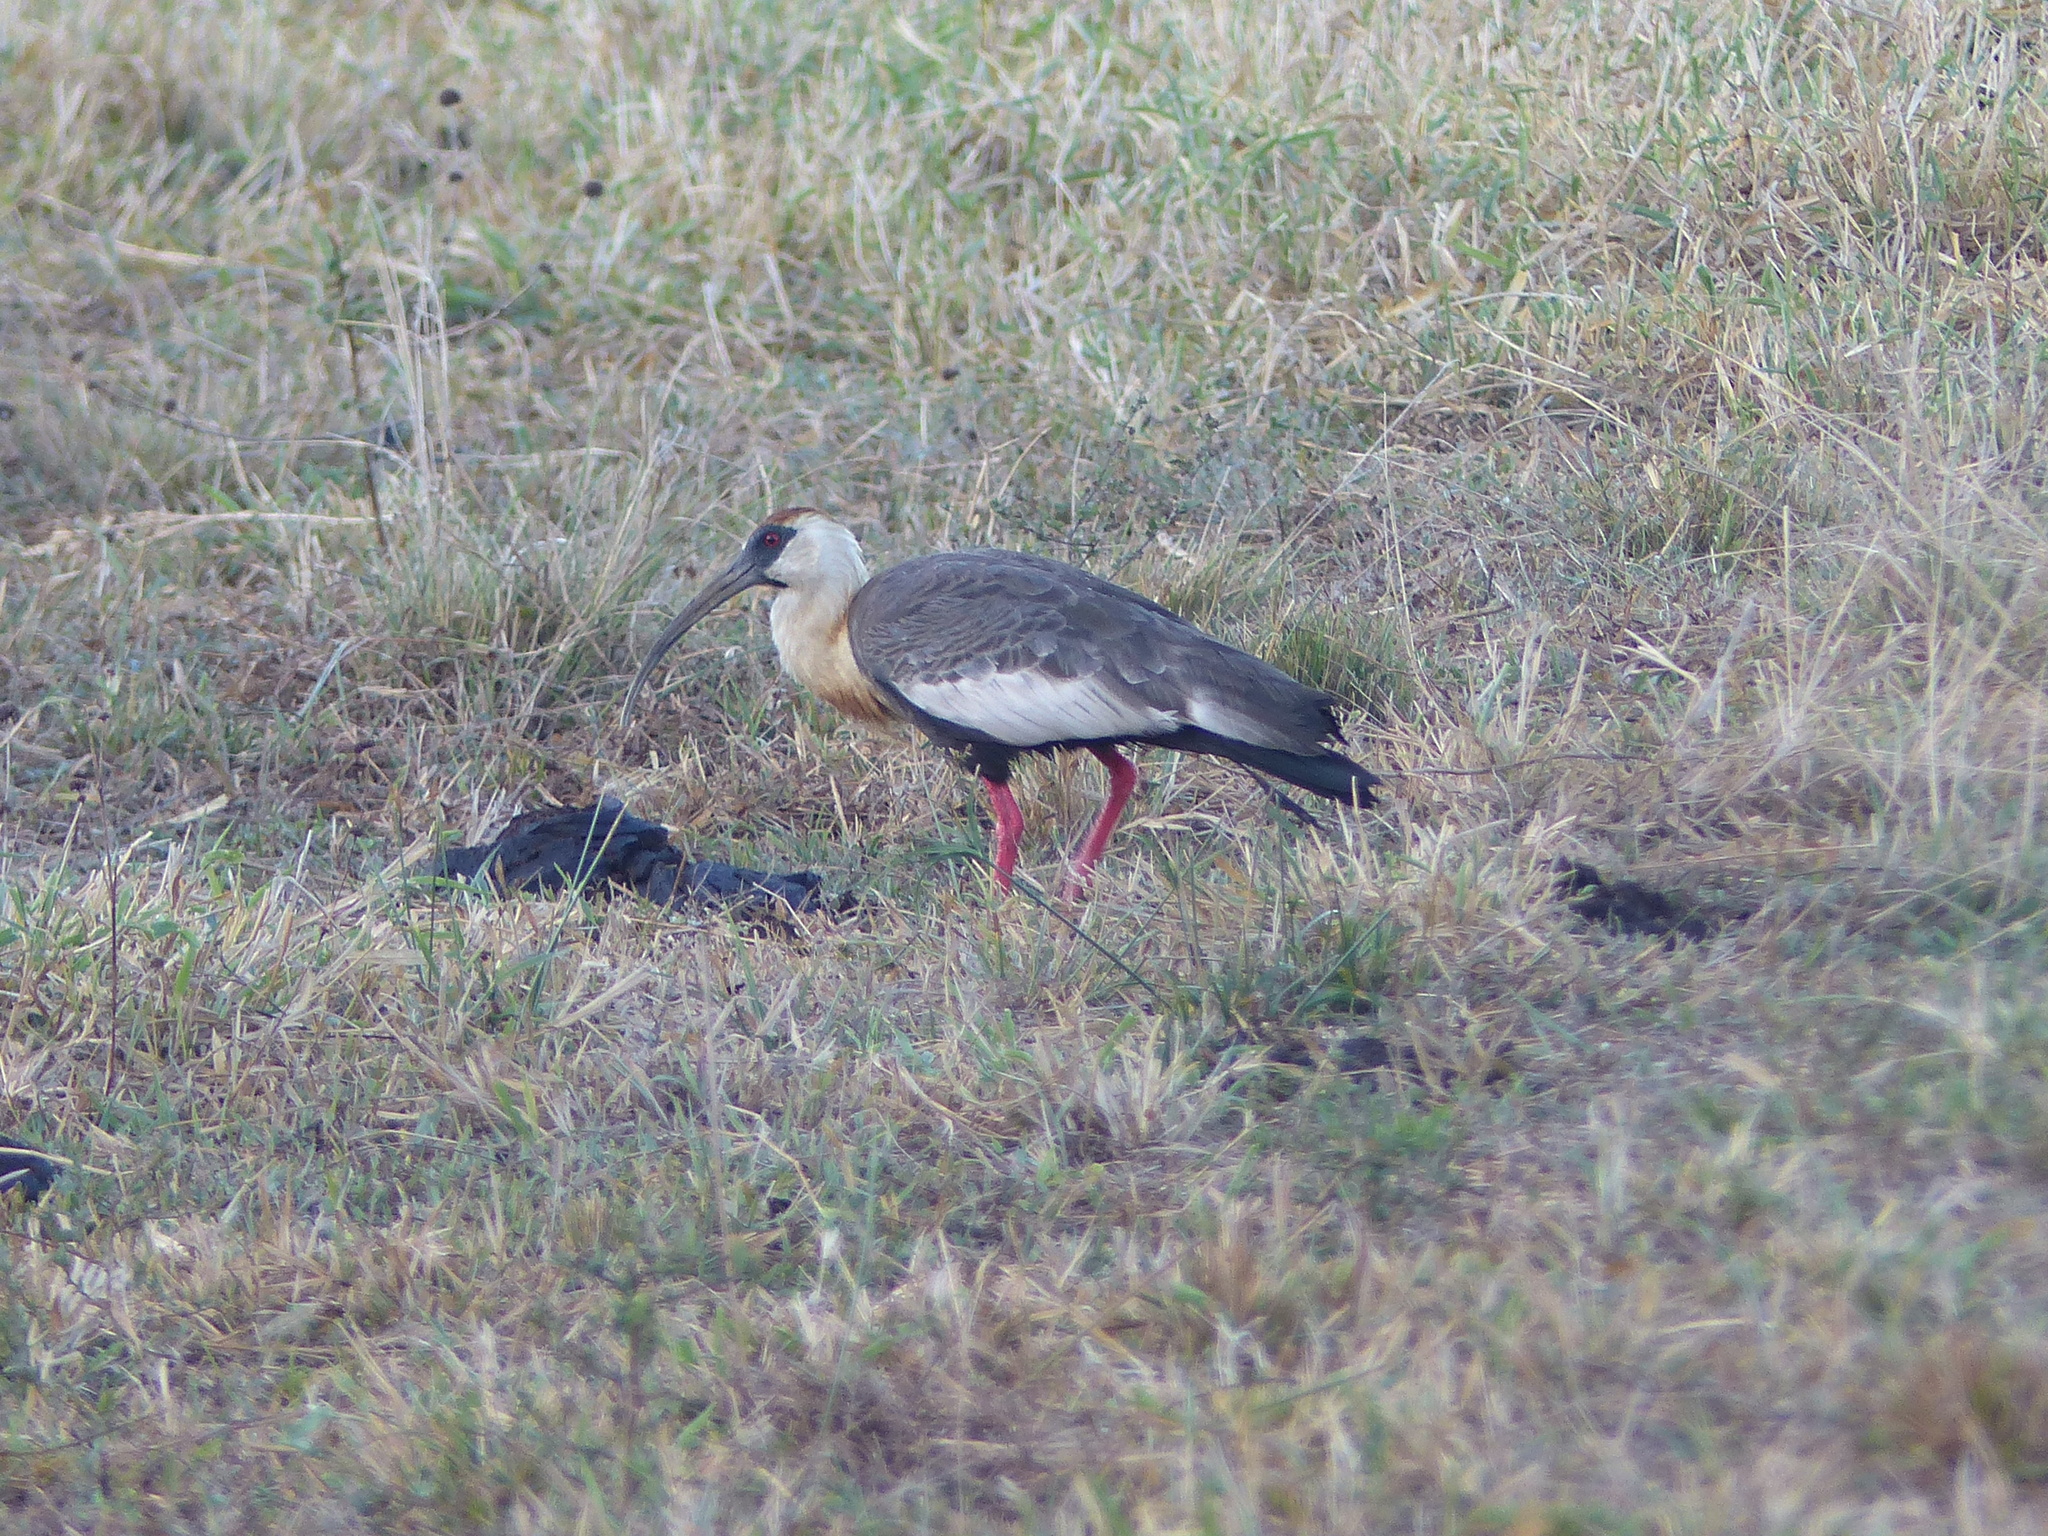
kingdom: Animalia
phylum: Chordata
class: Aves
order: Pelecaniformes
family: Threskiornithidae
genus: Theristicus
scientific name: Theristicus caudatus
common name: Buff-necked ibis
